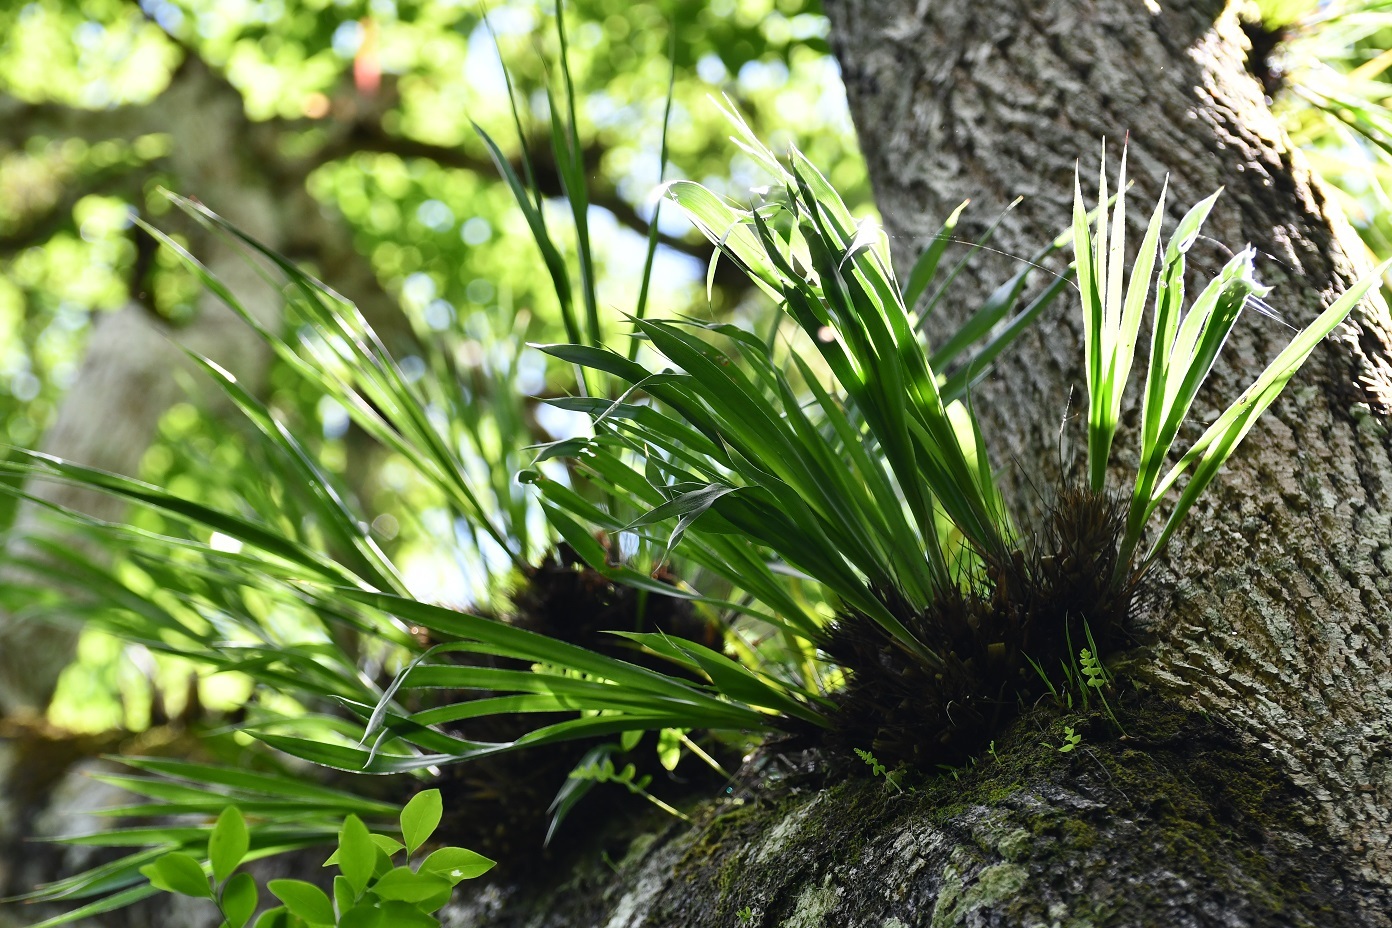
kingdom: Plantae
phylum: Tracheophyta
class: Liliopsida
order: Poales
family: Bromeliaceae
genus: Pitcairnia
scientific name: Pitcairnia heterophylla
